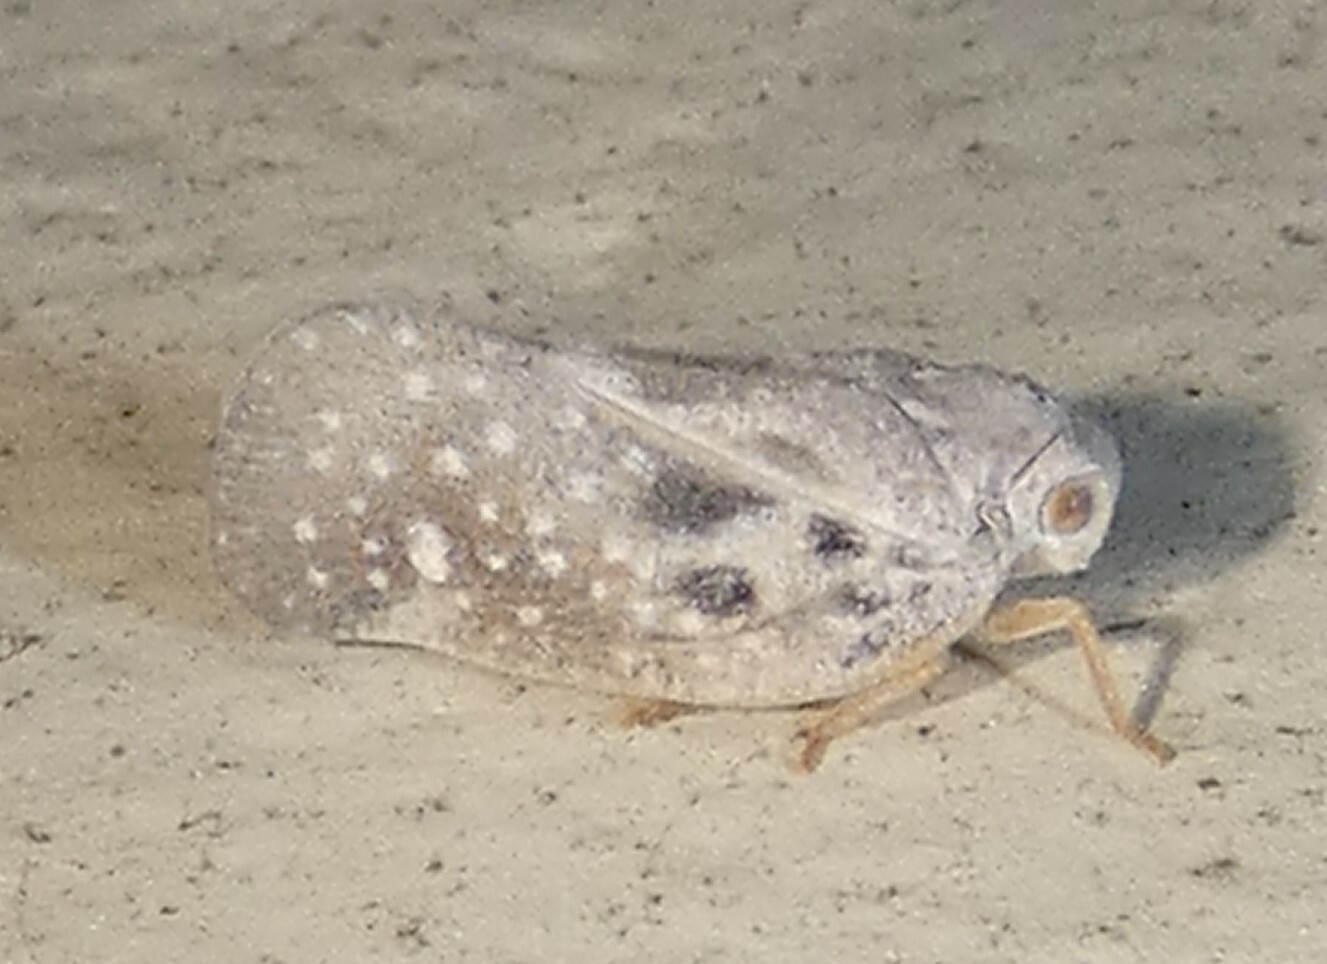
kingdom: Animalia
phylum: Arthropoda
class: Insecta
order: Hemiptera
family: Flatidae
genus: Metcalfa
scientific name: Metcalfa pruinosa
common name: Citrus flatid planthopper
